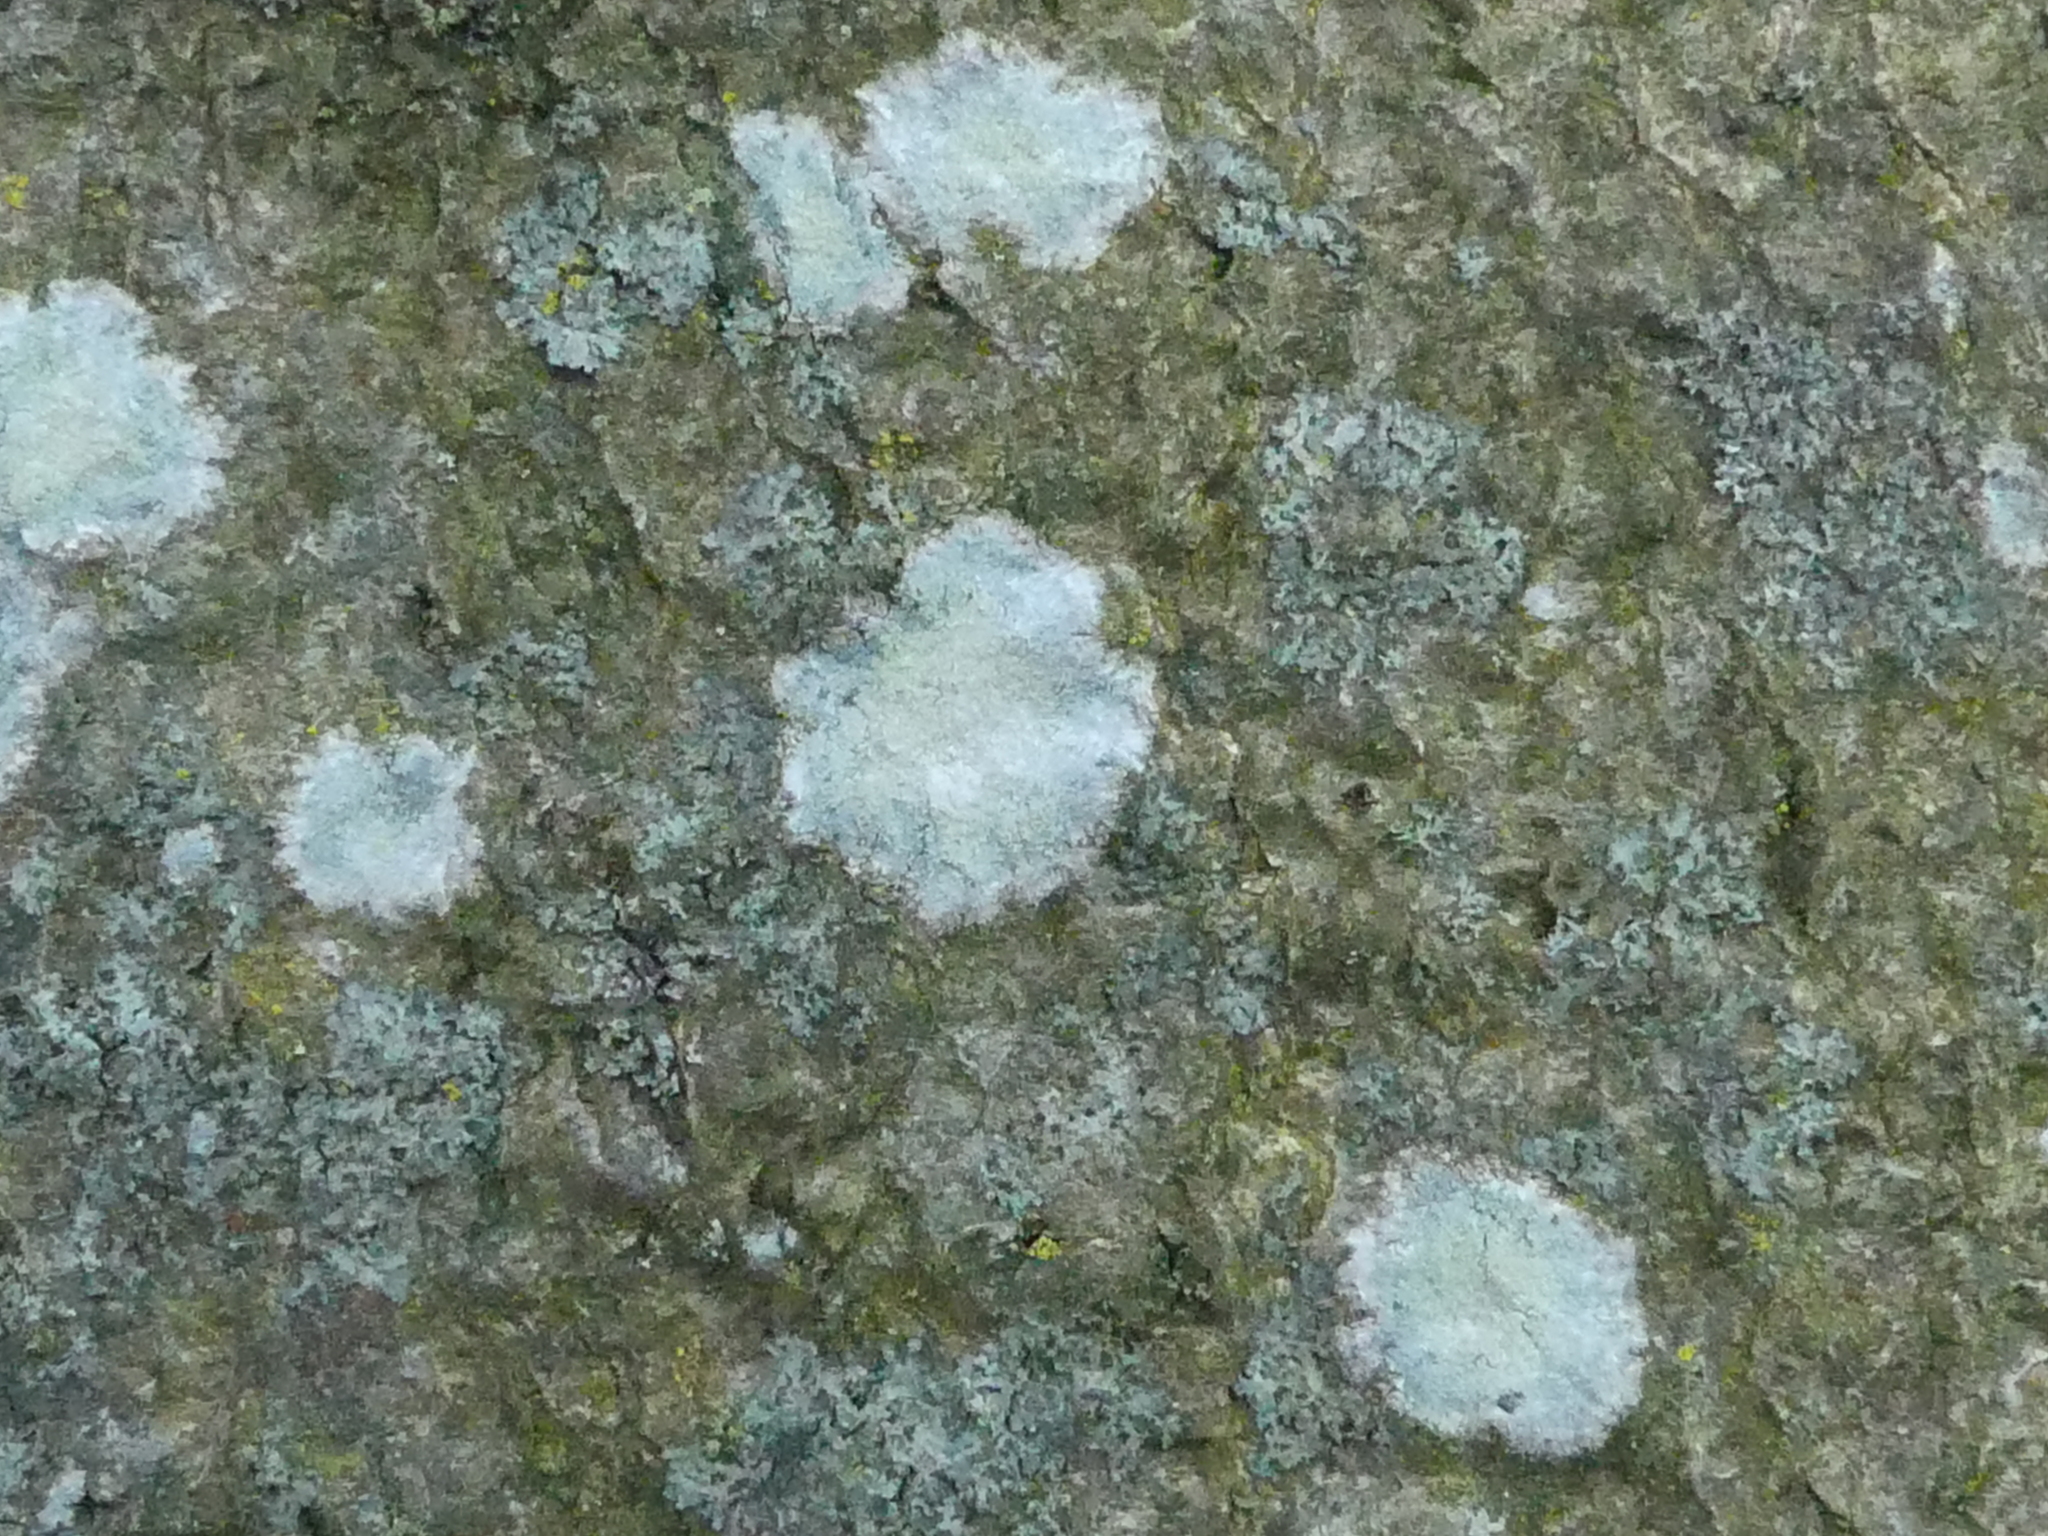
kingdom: Fungi
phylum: Ascomycota
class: Lecanoromycetes
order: Ostropales
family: Phlyctidaceae
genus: Phlyctis
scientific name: Phlyctis argena
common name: Whitewash lichen
